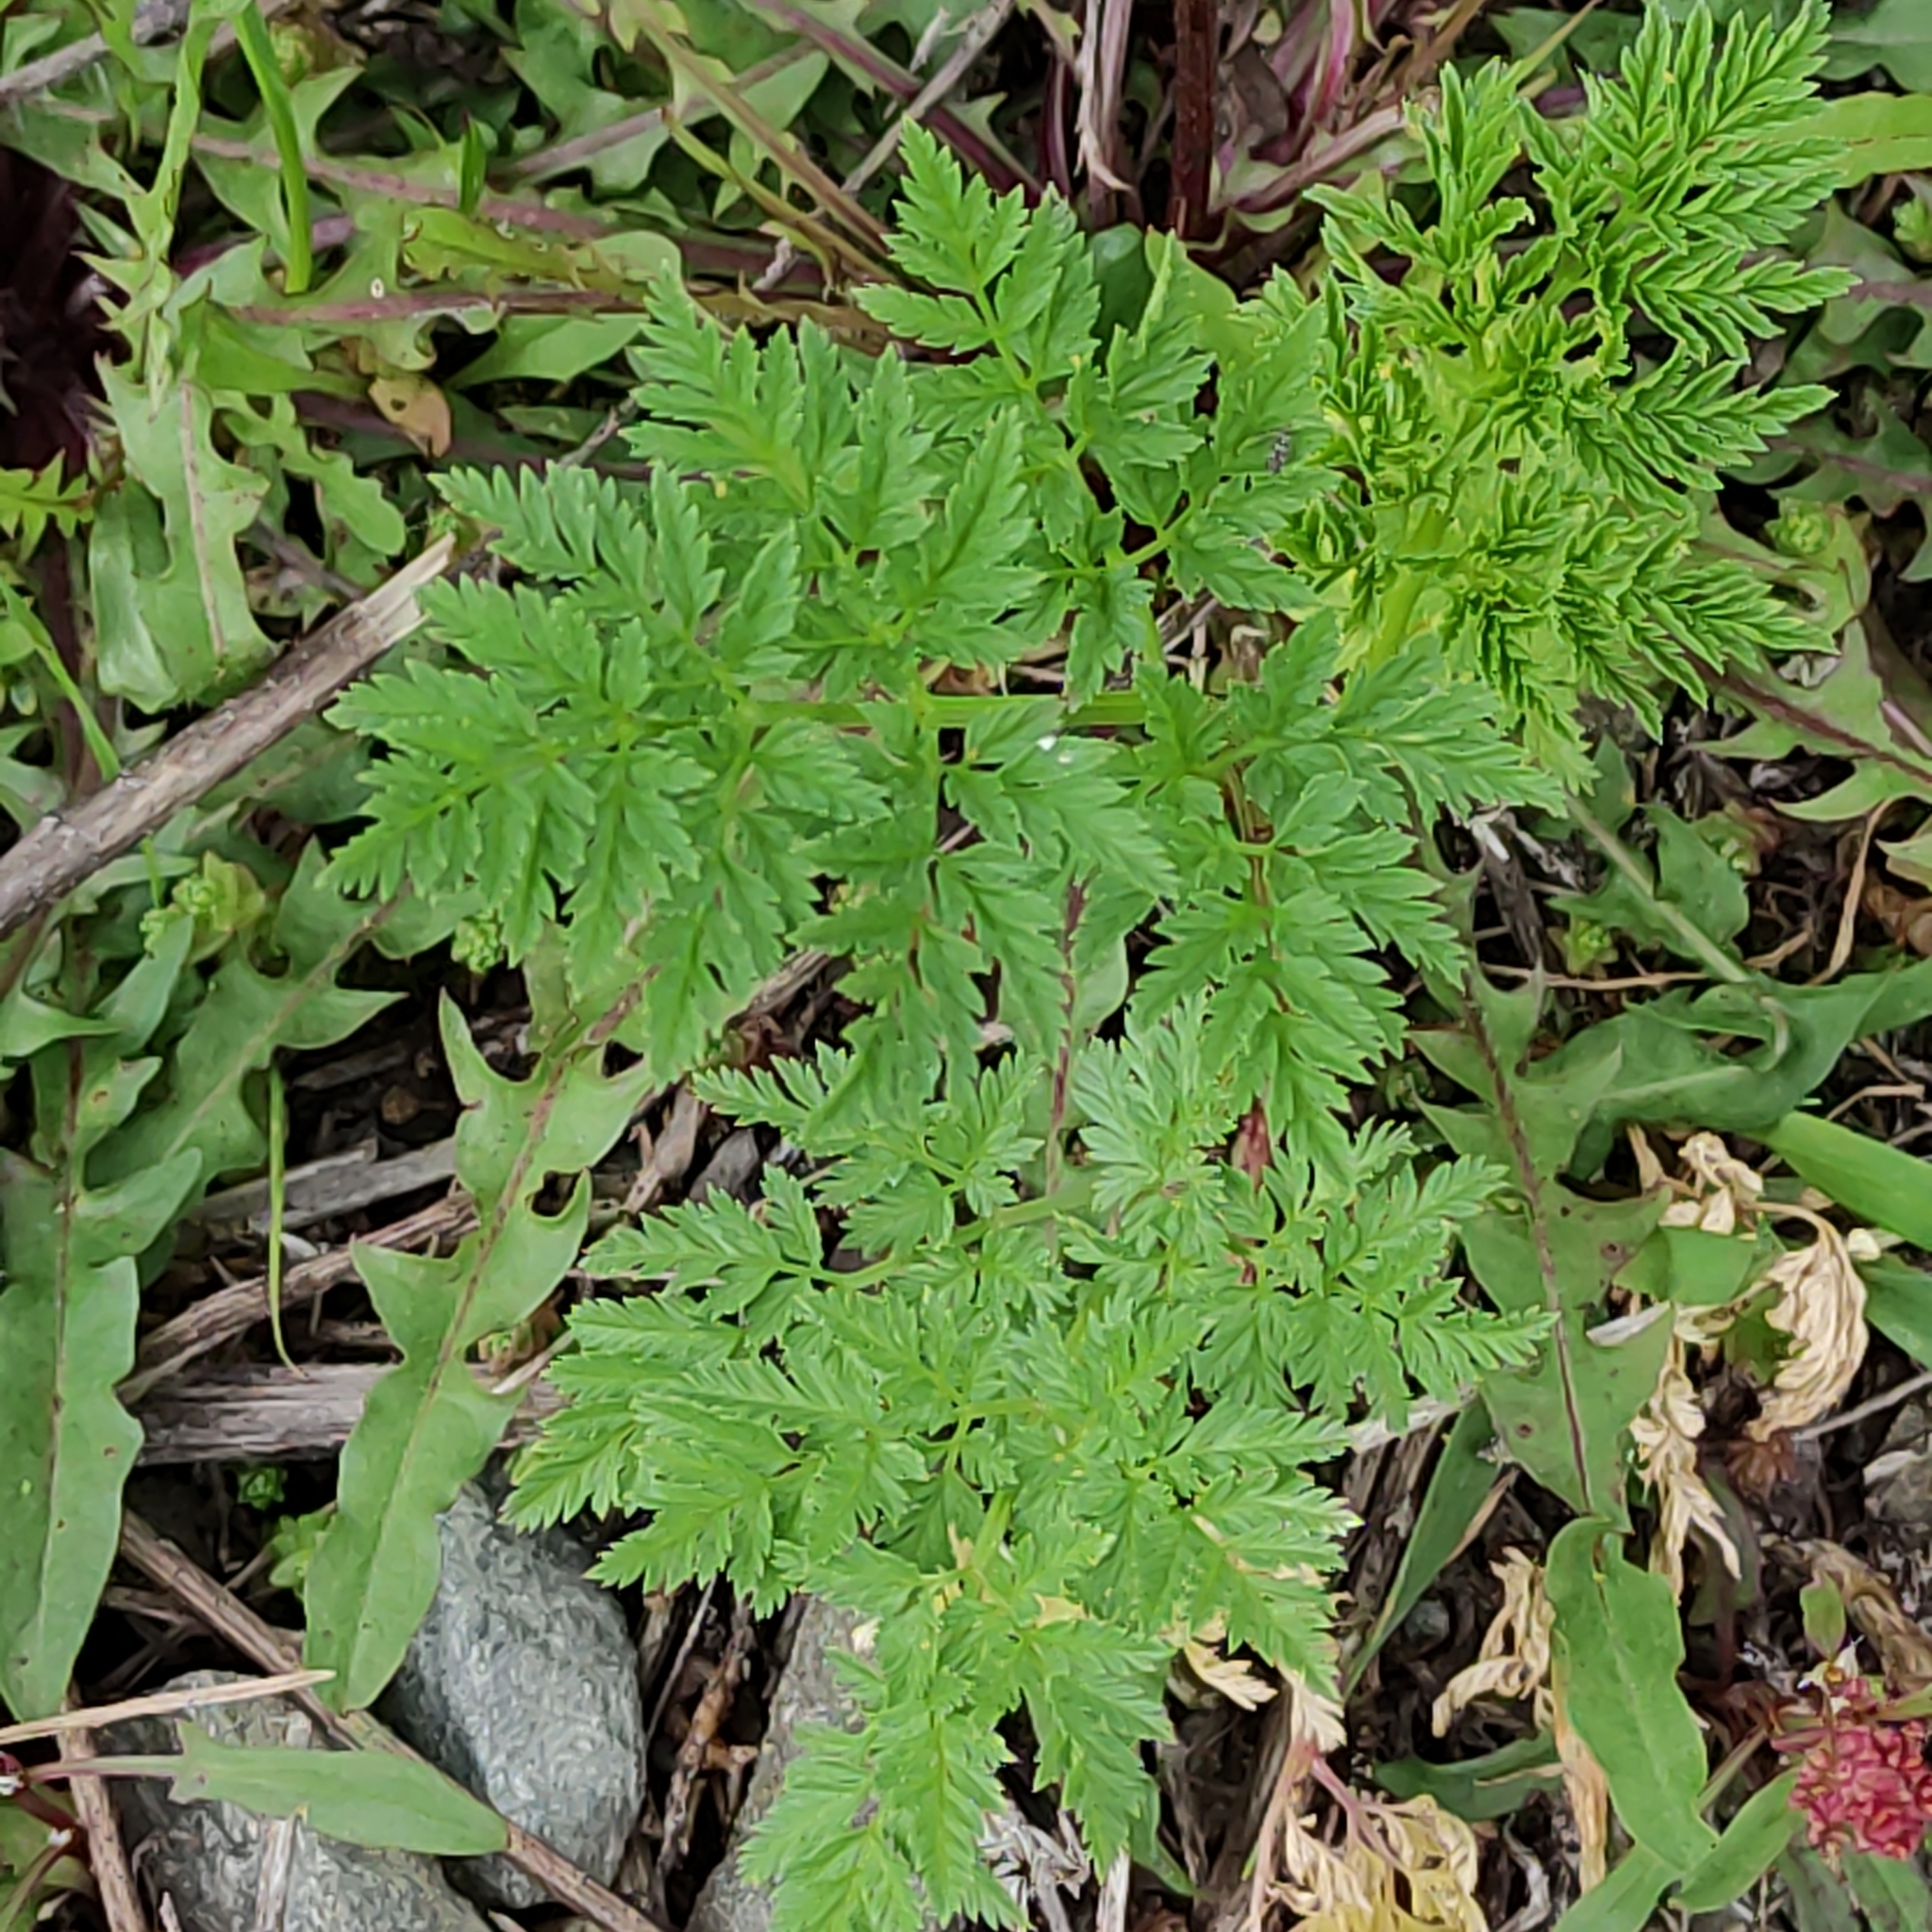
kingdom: Plantae
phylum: Tracheophyta
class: Magnoliopsida
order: Apiales
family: Apiaceae
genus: Conium
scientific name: Conium maculatum
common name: Hemlock
